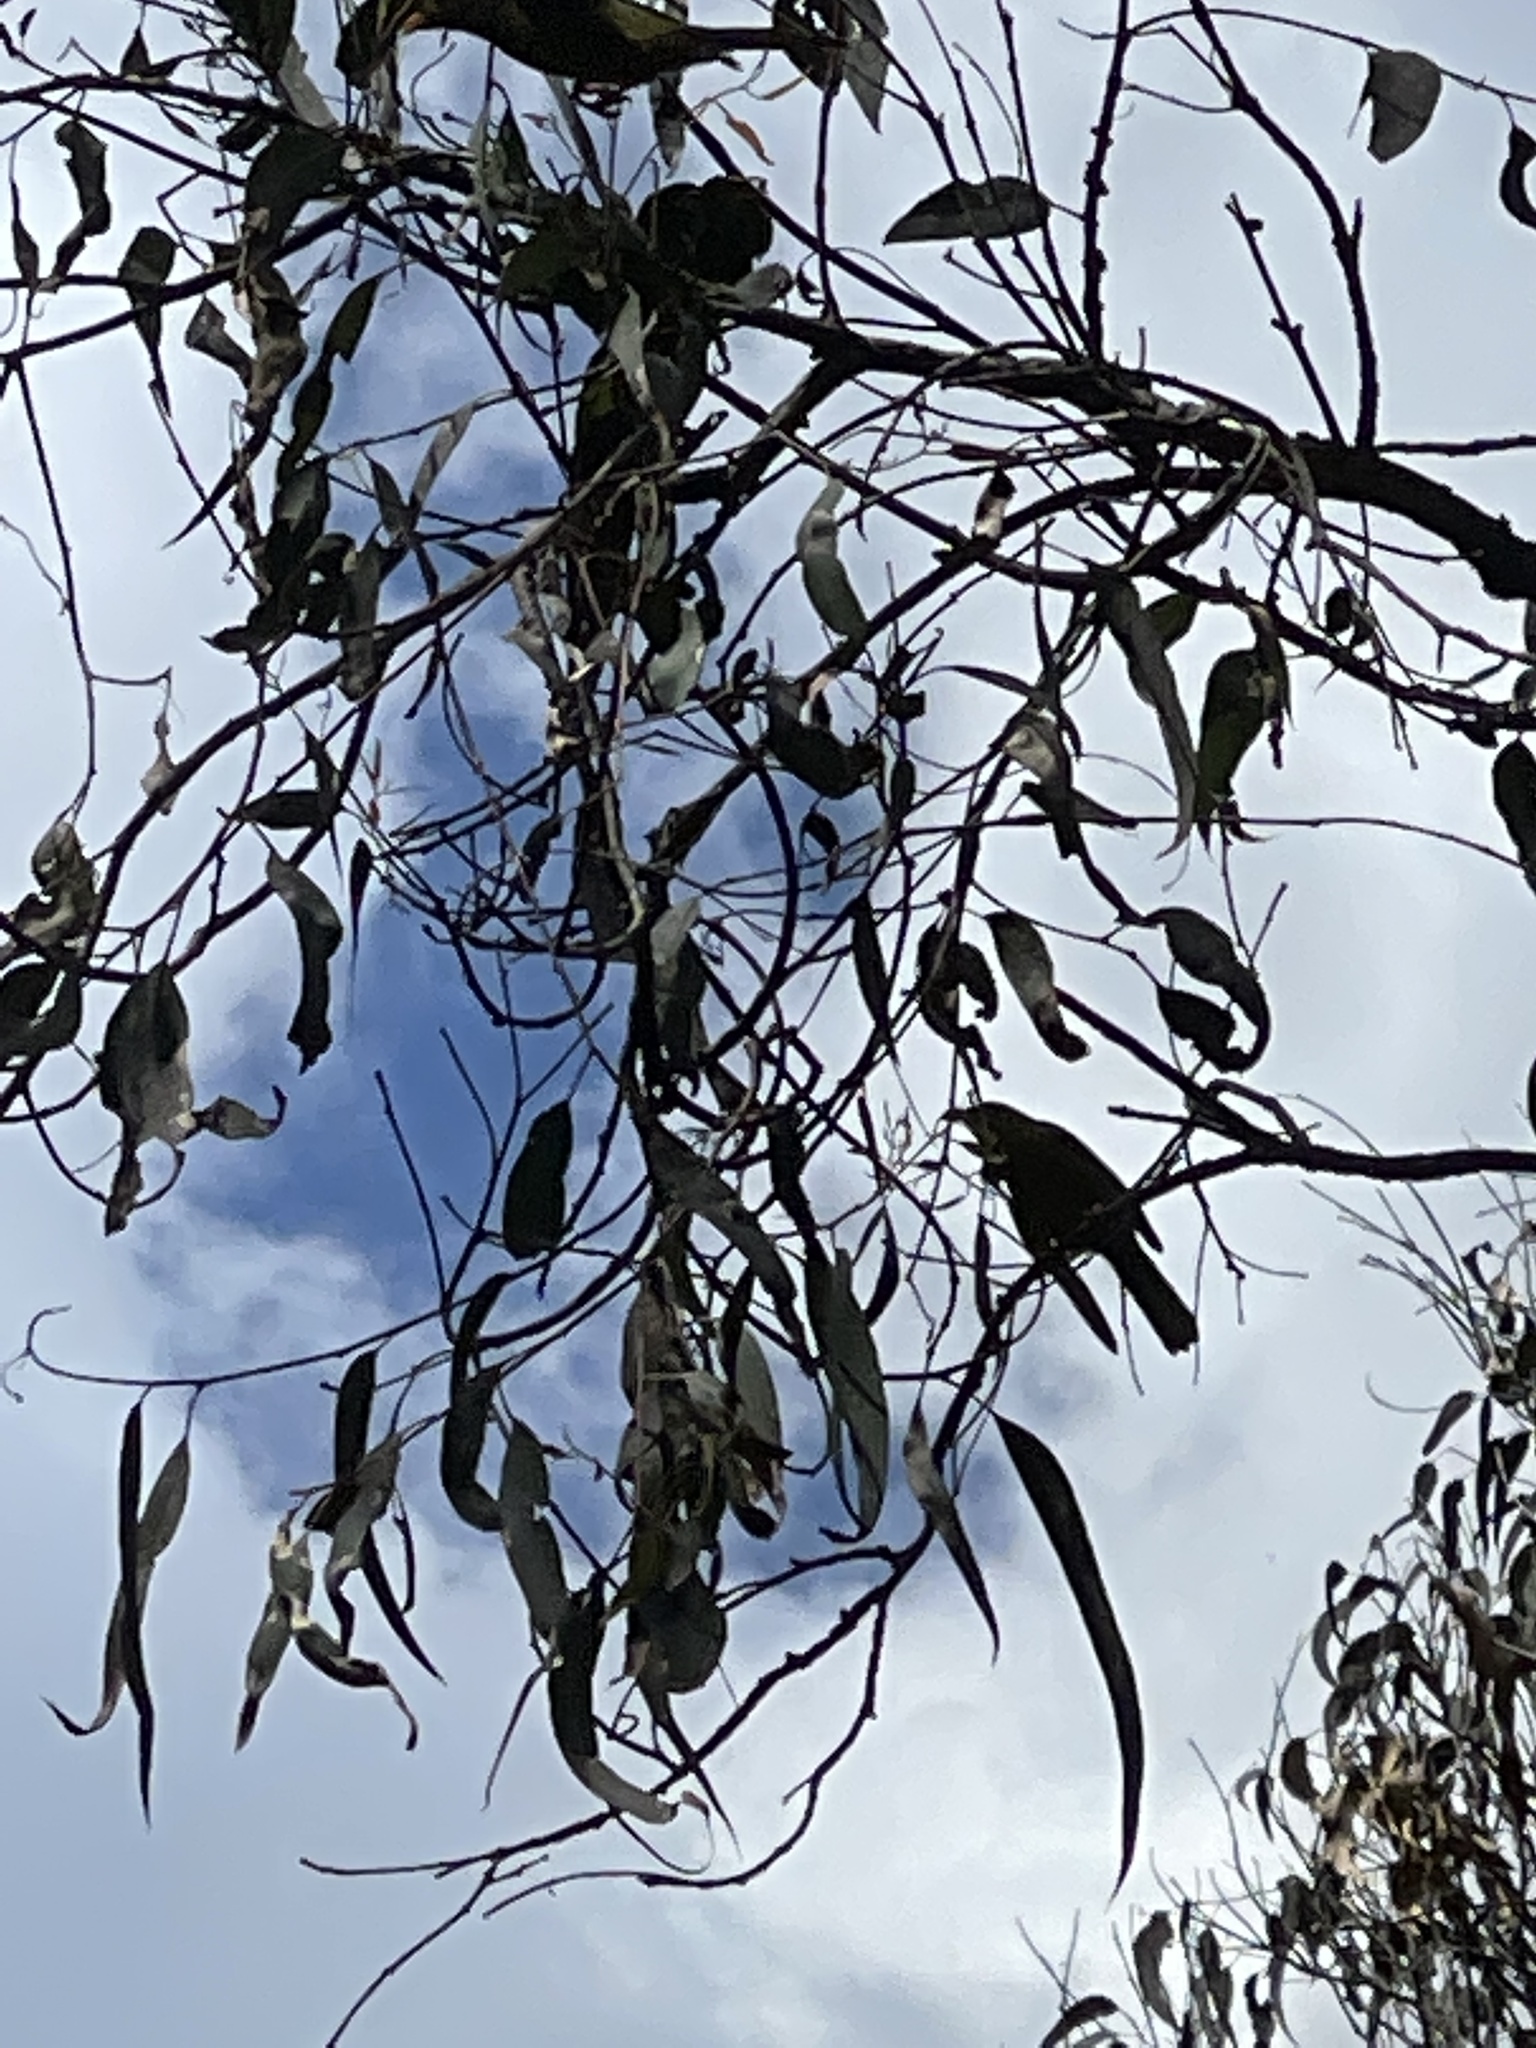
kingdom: Animalia
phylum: Chordata
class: Aves
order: Passeriformes
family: Meliphagidae
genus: Manorina
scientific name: Manorina melanophrys
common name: Bell miner
